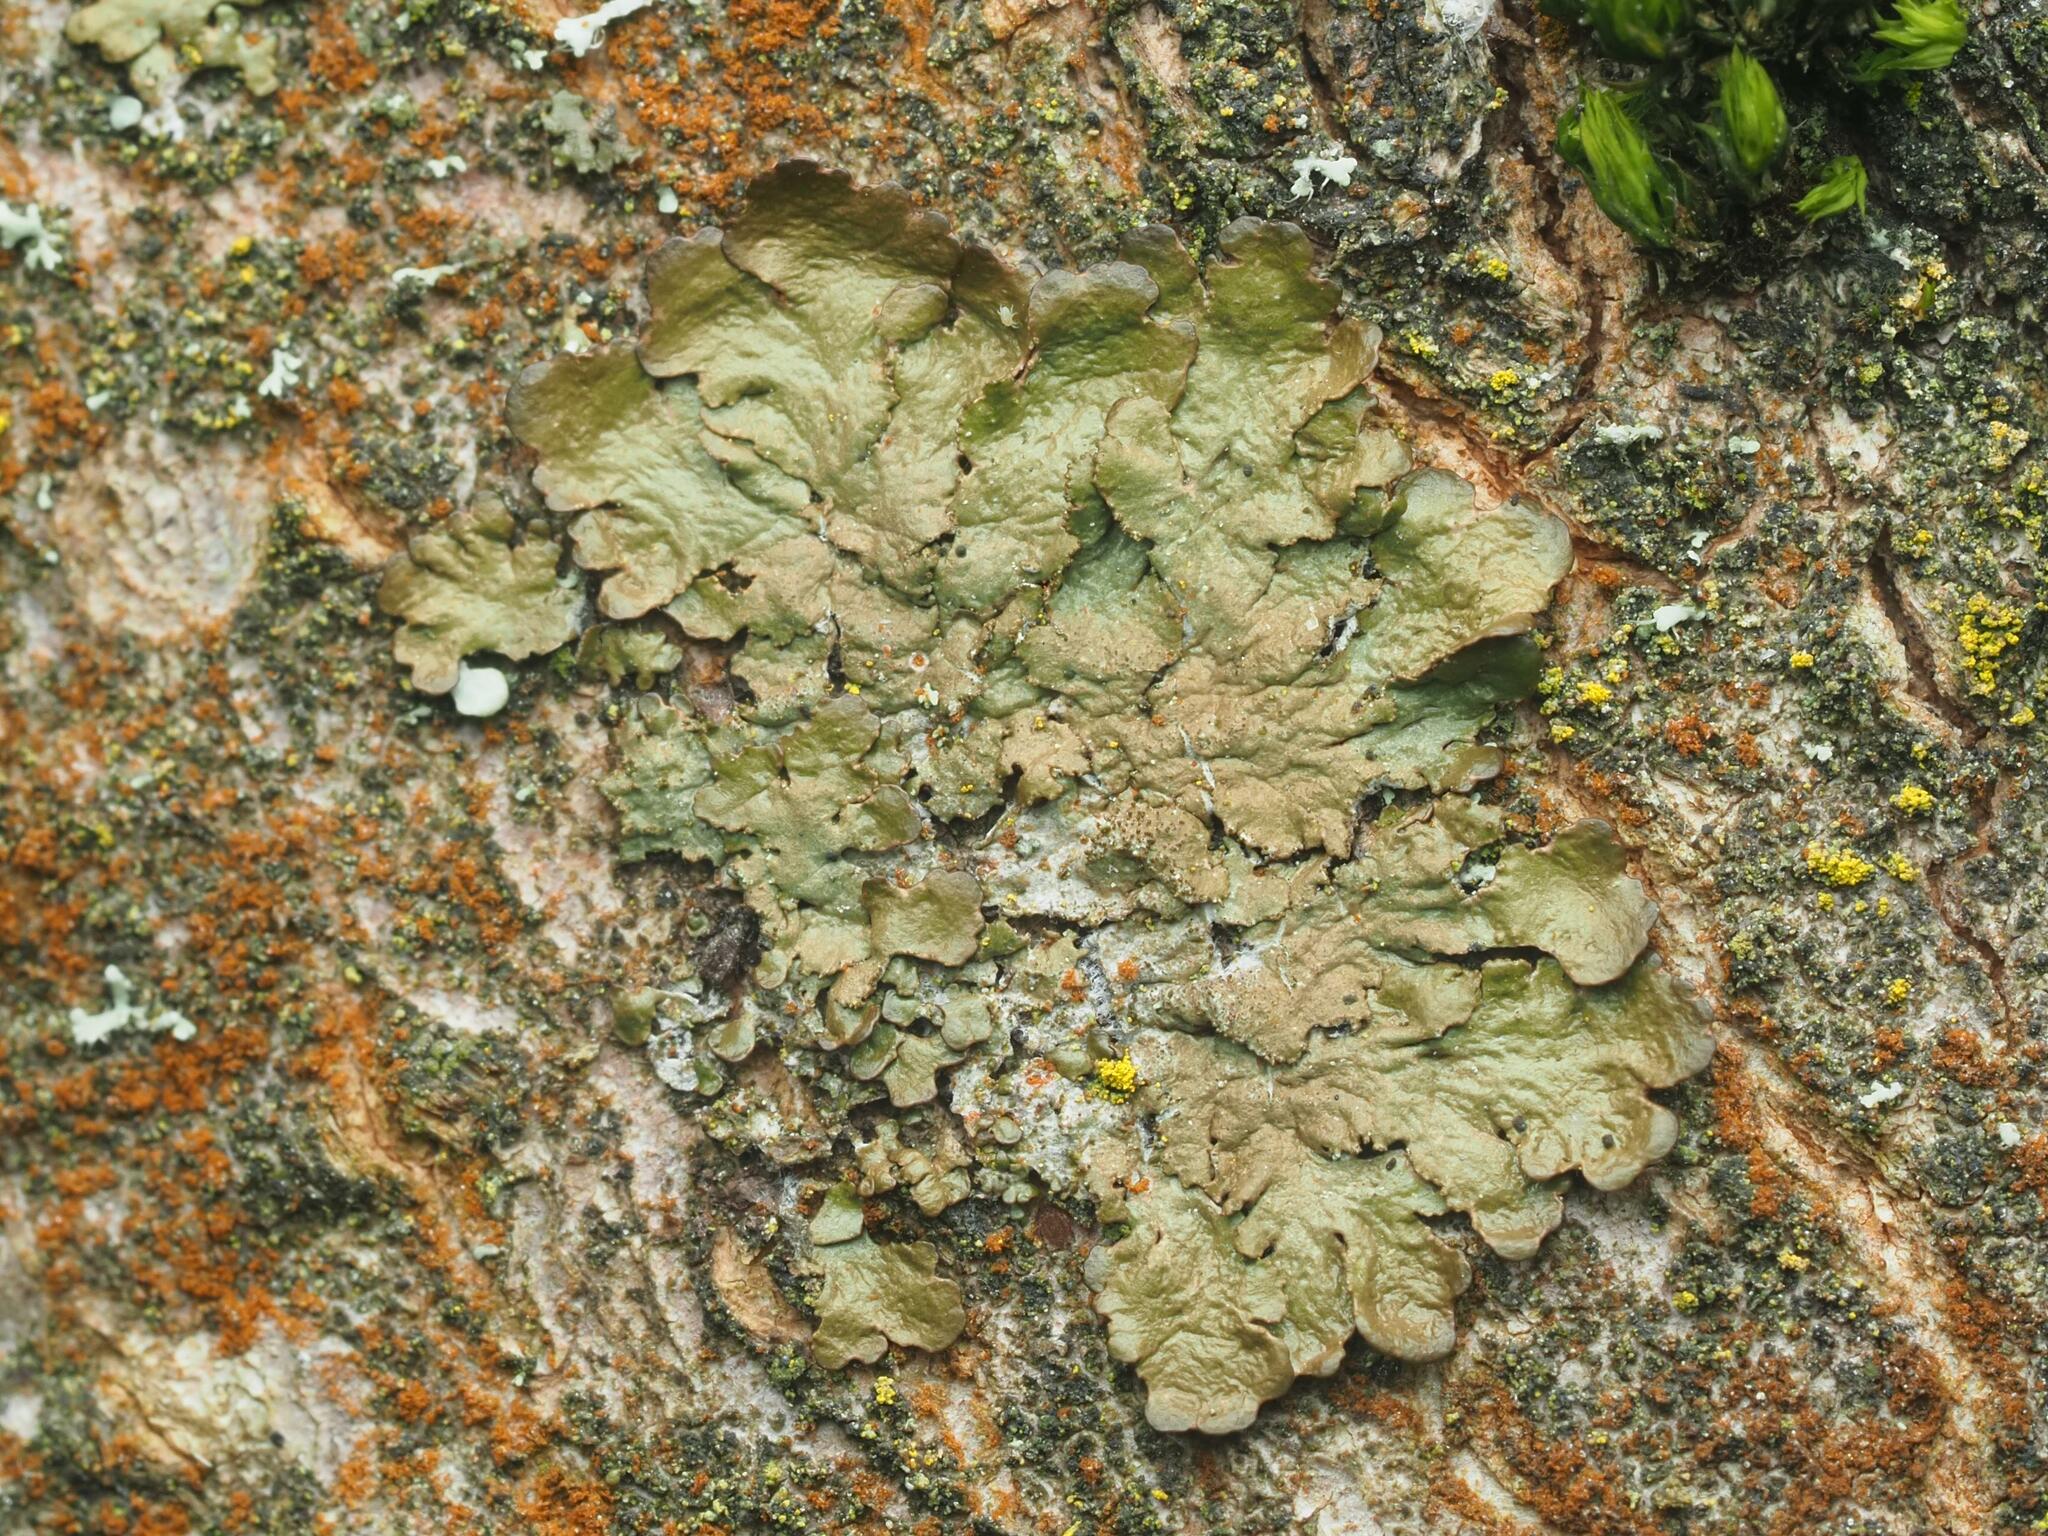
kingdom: Fungi
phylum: Ascomycota
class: Lecanoromycetes
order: Lecanorales
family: Parmeliaceae
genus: Melanelixia
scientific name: Melanelixia glabratula
